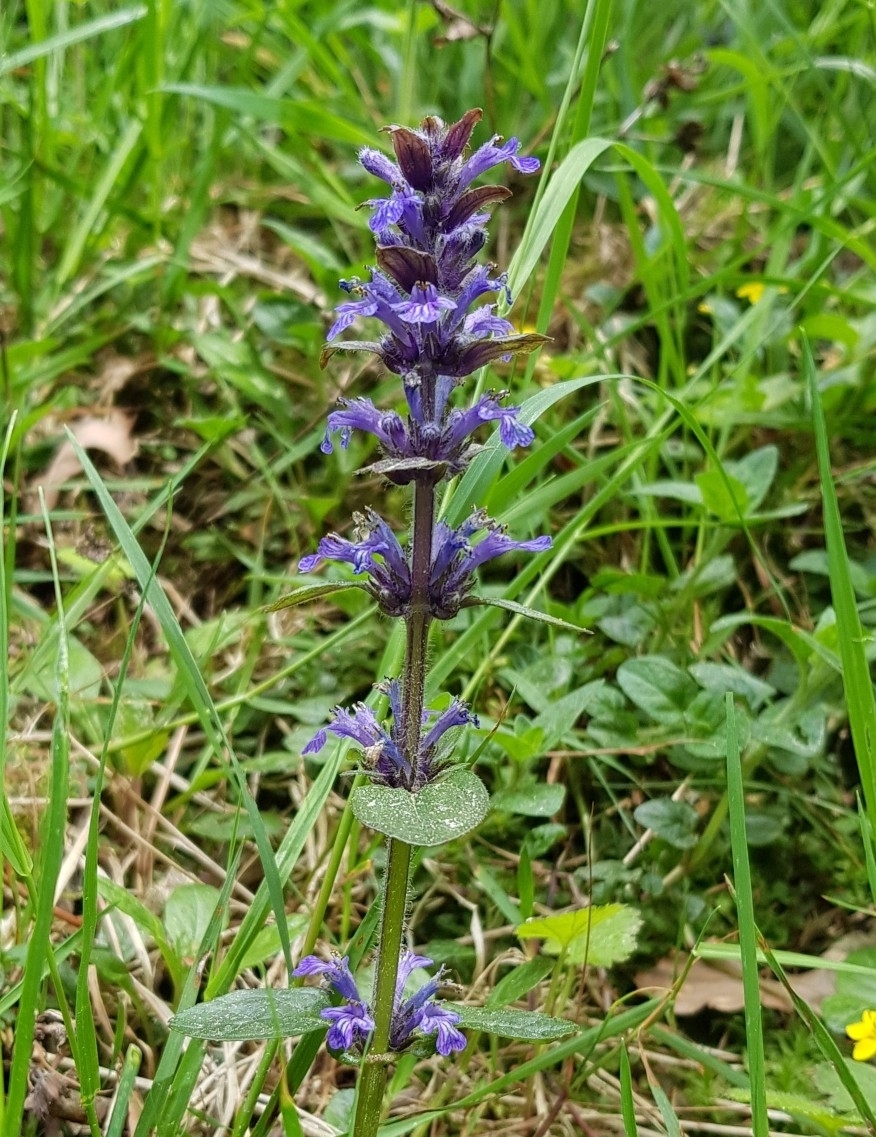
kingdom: Plantae
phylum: Tracheophyta
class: Magnoliopsida
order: Lamiales
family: Lamiaceae
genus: Ajuga
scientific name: Ajuga reptans
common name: Bugle
